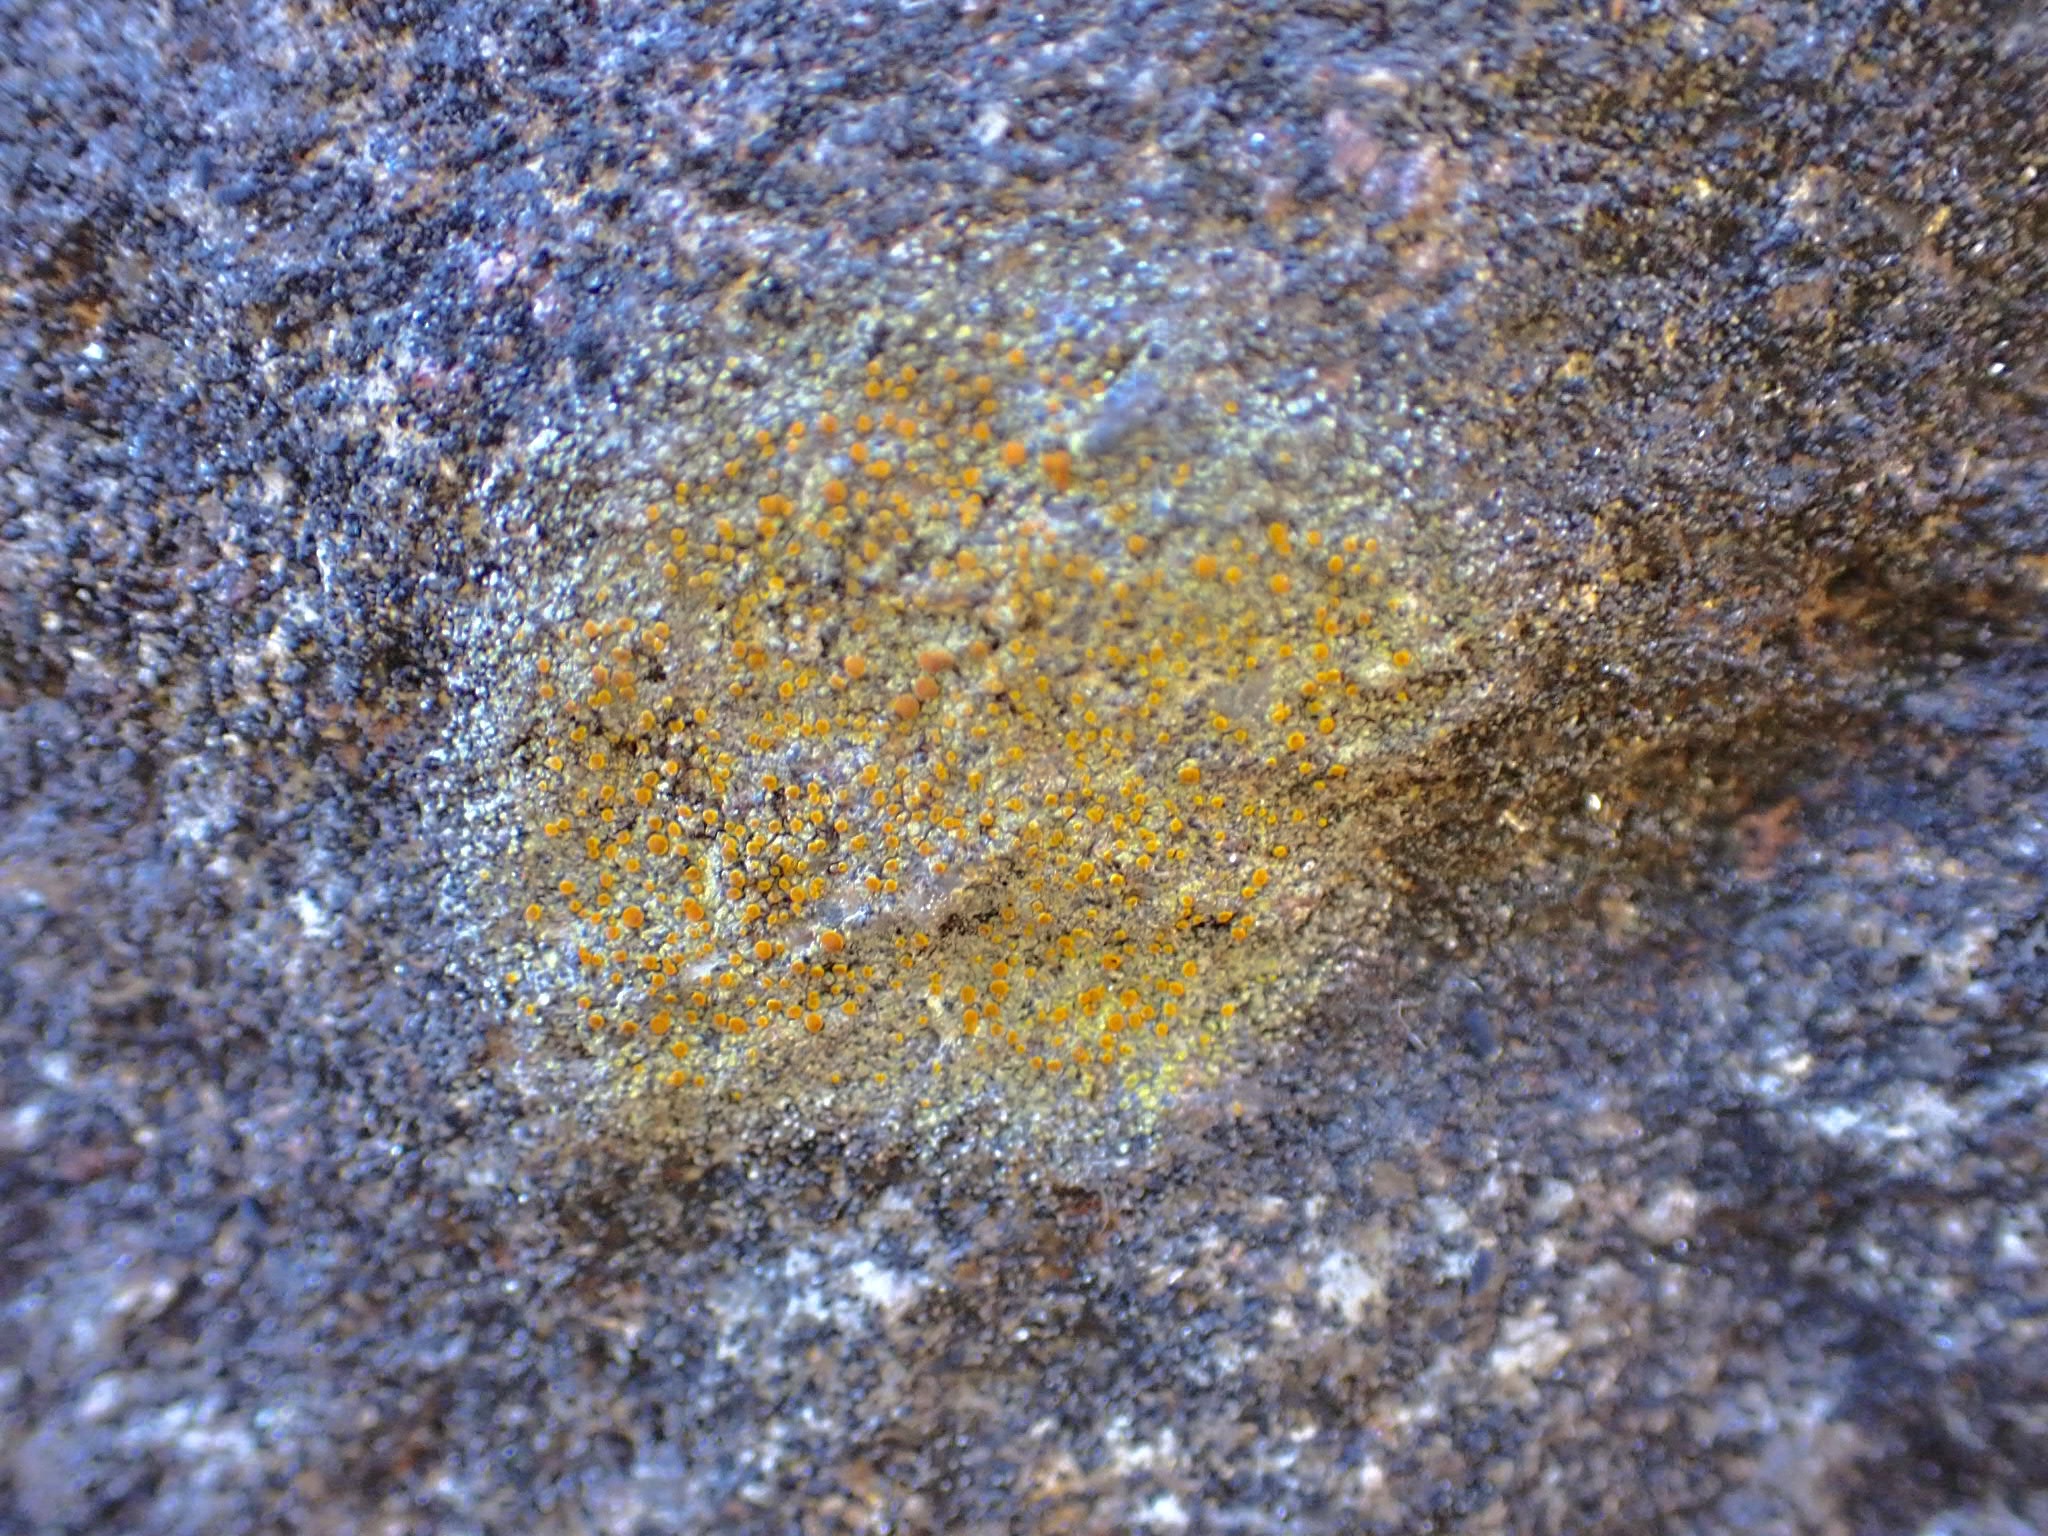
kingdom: Fungi
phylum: Ascomycota
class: Lecanoromycetes
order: Teloschistales
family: Teloschistaceae
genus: Gyalolechia
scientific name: Gyalolechia flavovirescens
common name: Sulphur firedot
